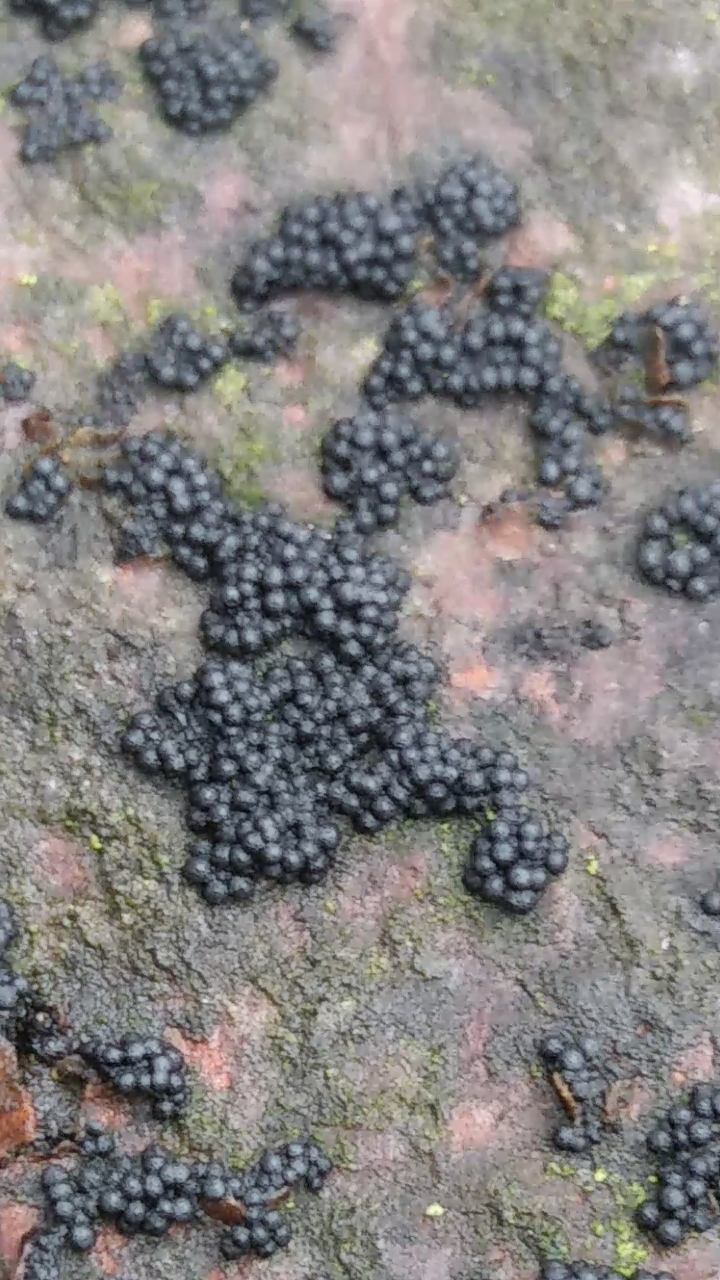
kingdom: Animalia
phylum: Arthropoda
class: Insecta
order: Lepidoptera
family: Crambidae
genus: Udea
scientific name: Udea rubigalis
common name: Celery leaftier moth
